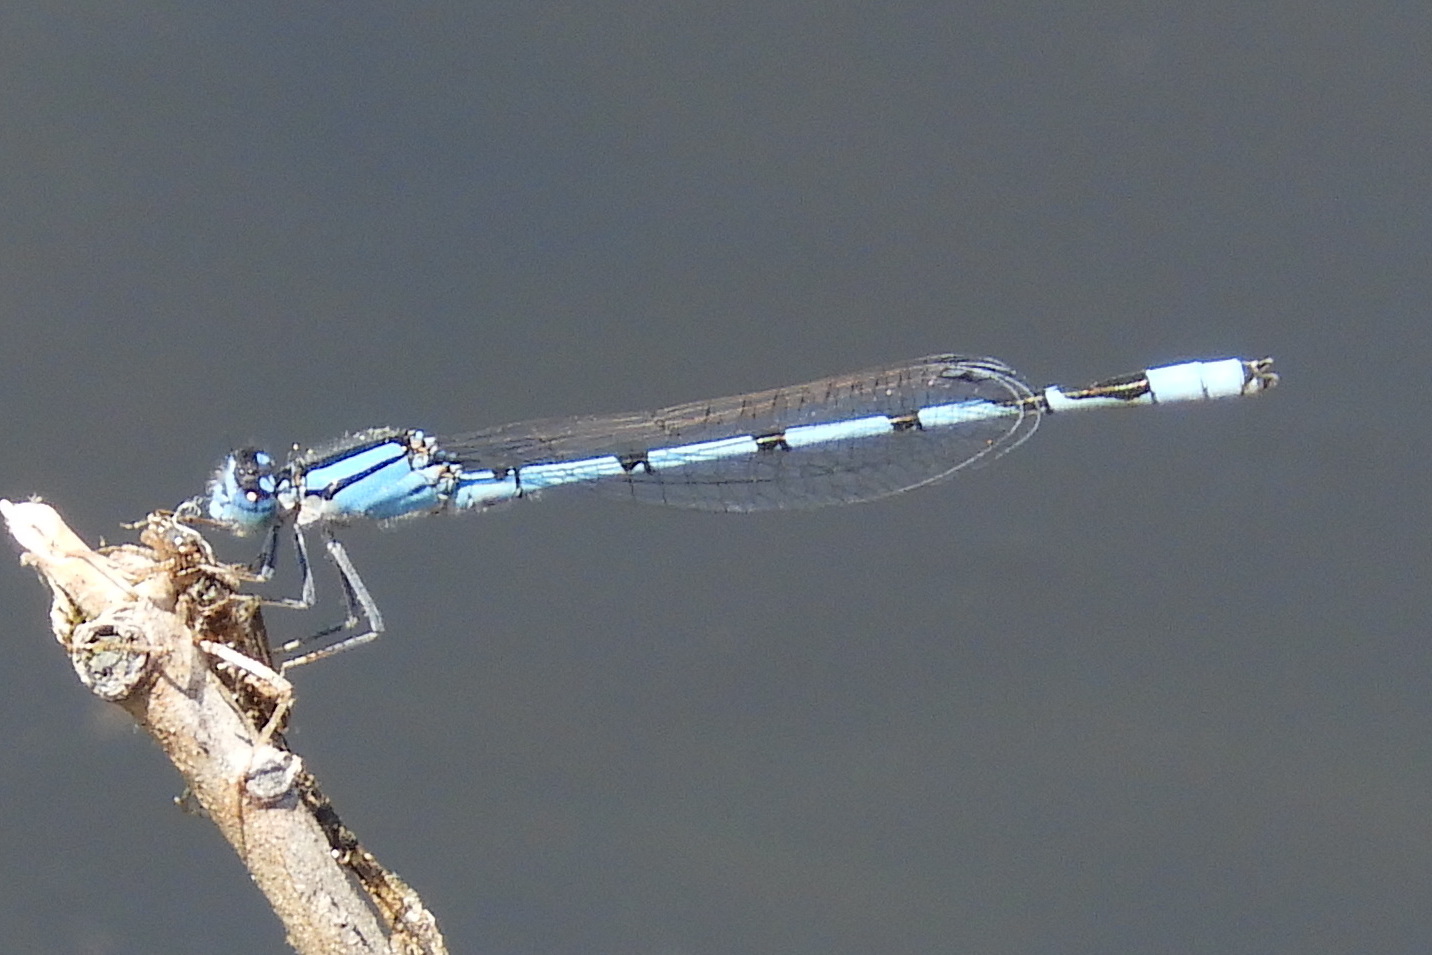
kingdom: Animalia
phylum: Arthropoda
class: Insecta
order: Odonata
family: Coenagrionidae
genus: Enallagma
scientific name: Enallagma civile
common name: Damselfly
